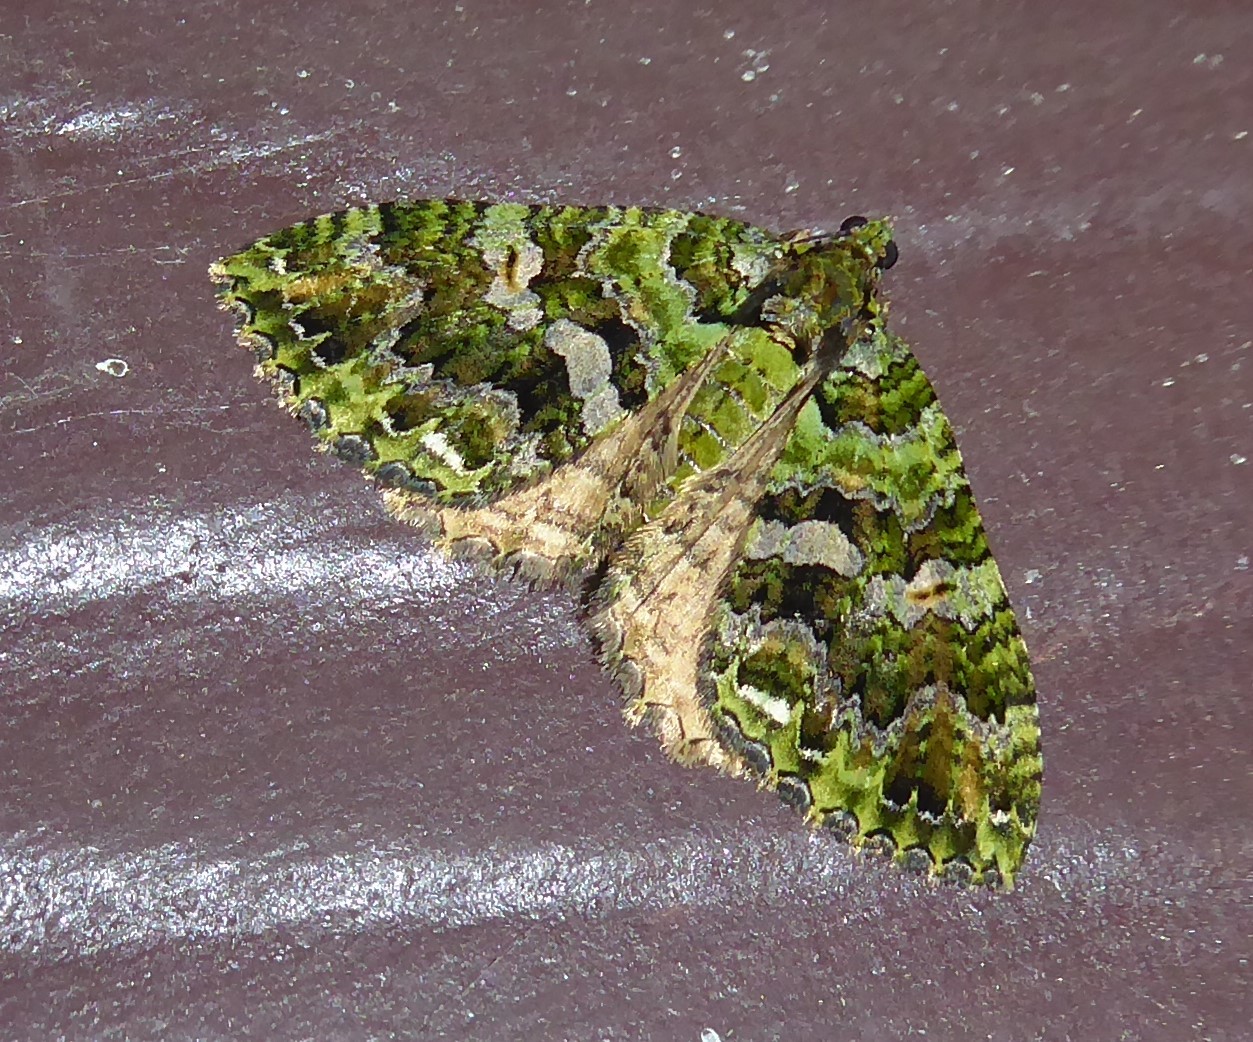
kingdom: Animalia
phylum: Arthropoda
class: Insecta
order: Lepidoptera
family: Geometridae
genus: Austrocidaria
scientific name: Austrocidaria similata
